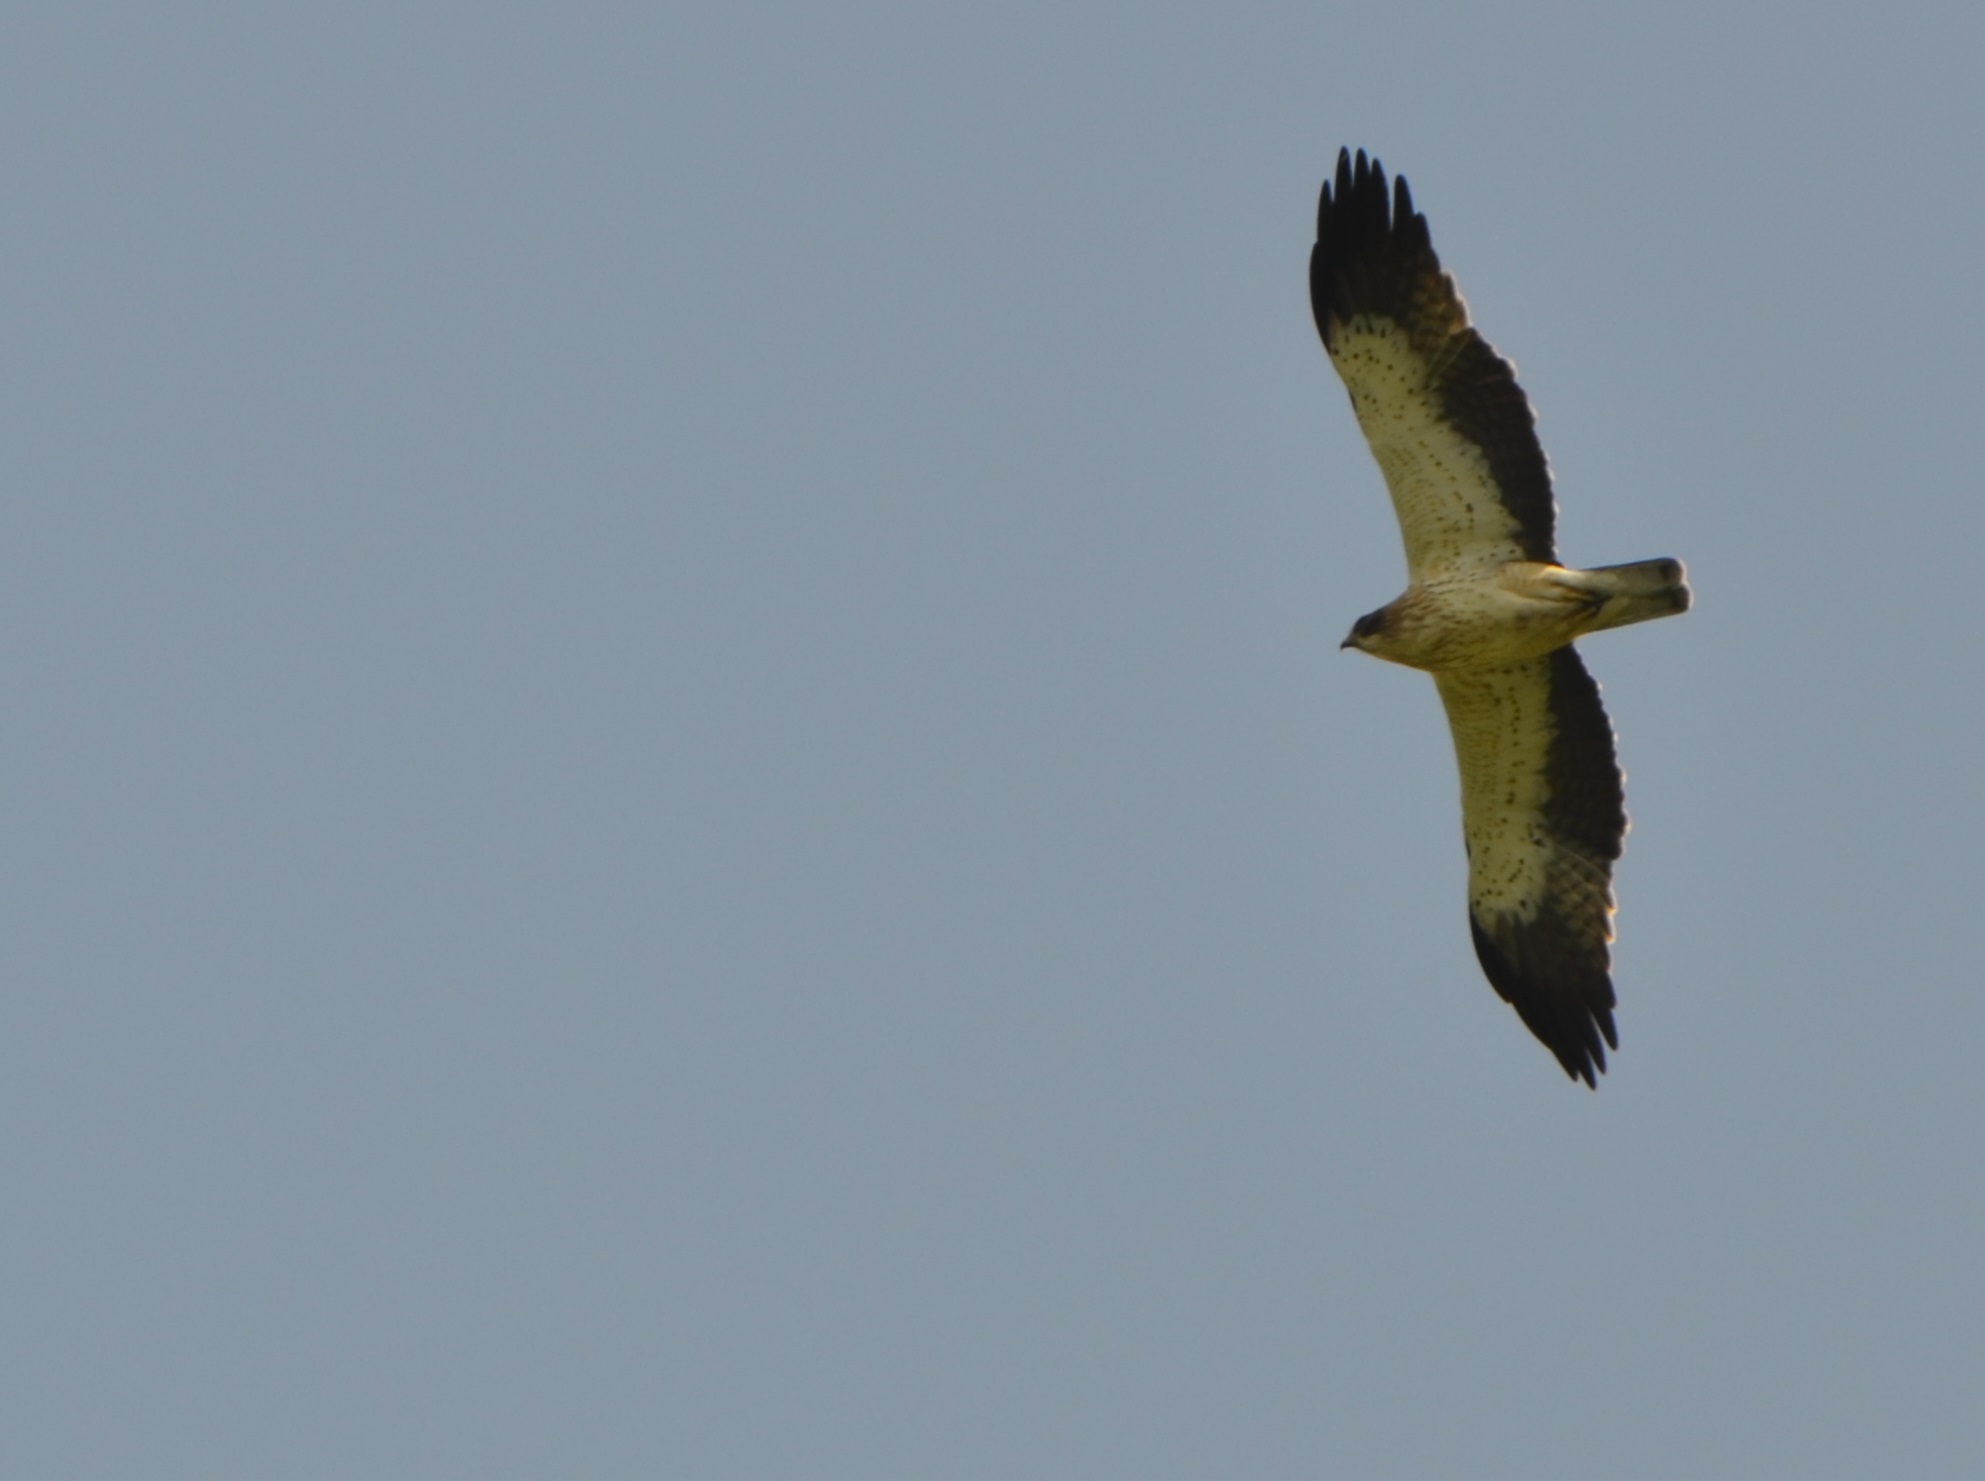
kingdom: Animalia
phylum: Chordata
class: Aves
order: Accipitriformes
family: Accipitridae
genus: Hieraaetus
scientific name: Hieraaetus pennatus
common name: Booted eagle
